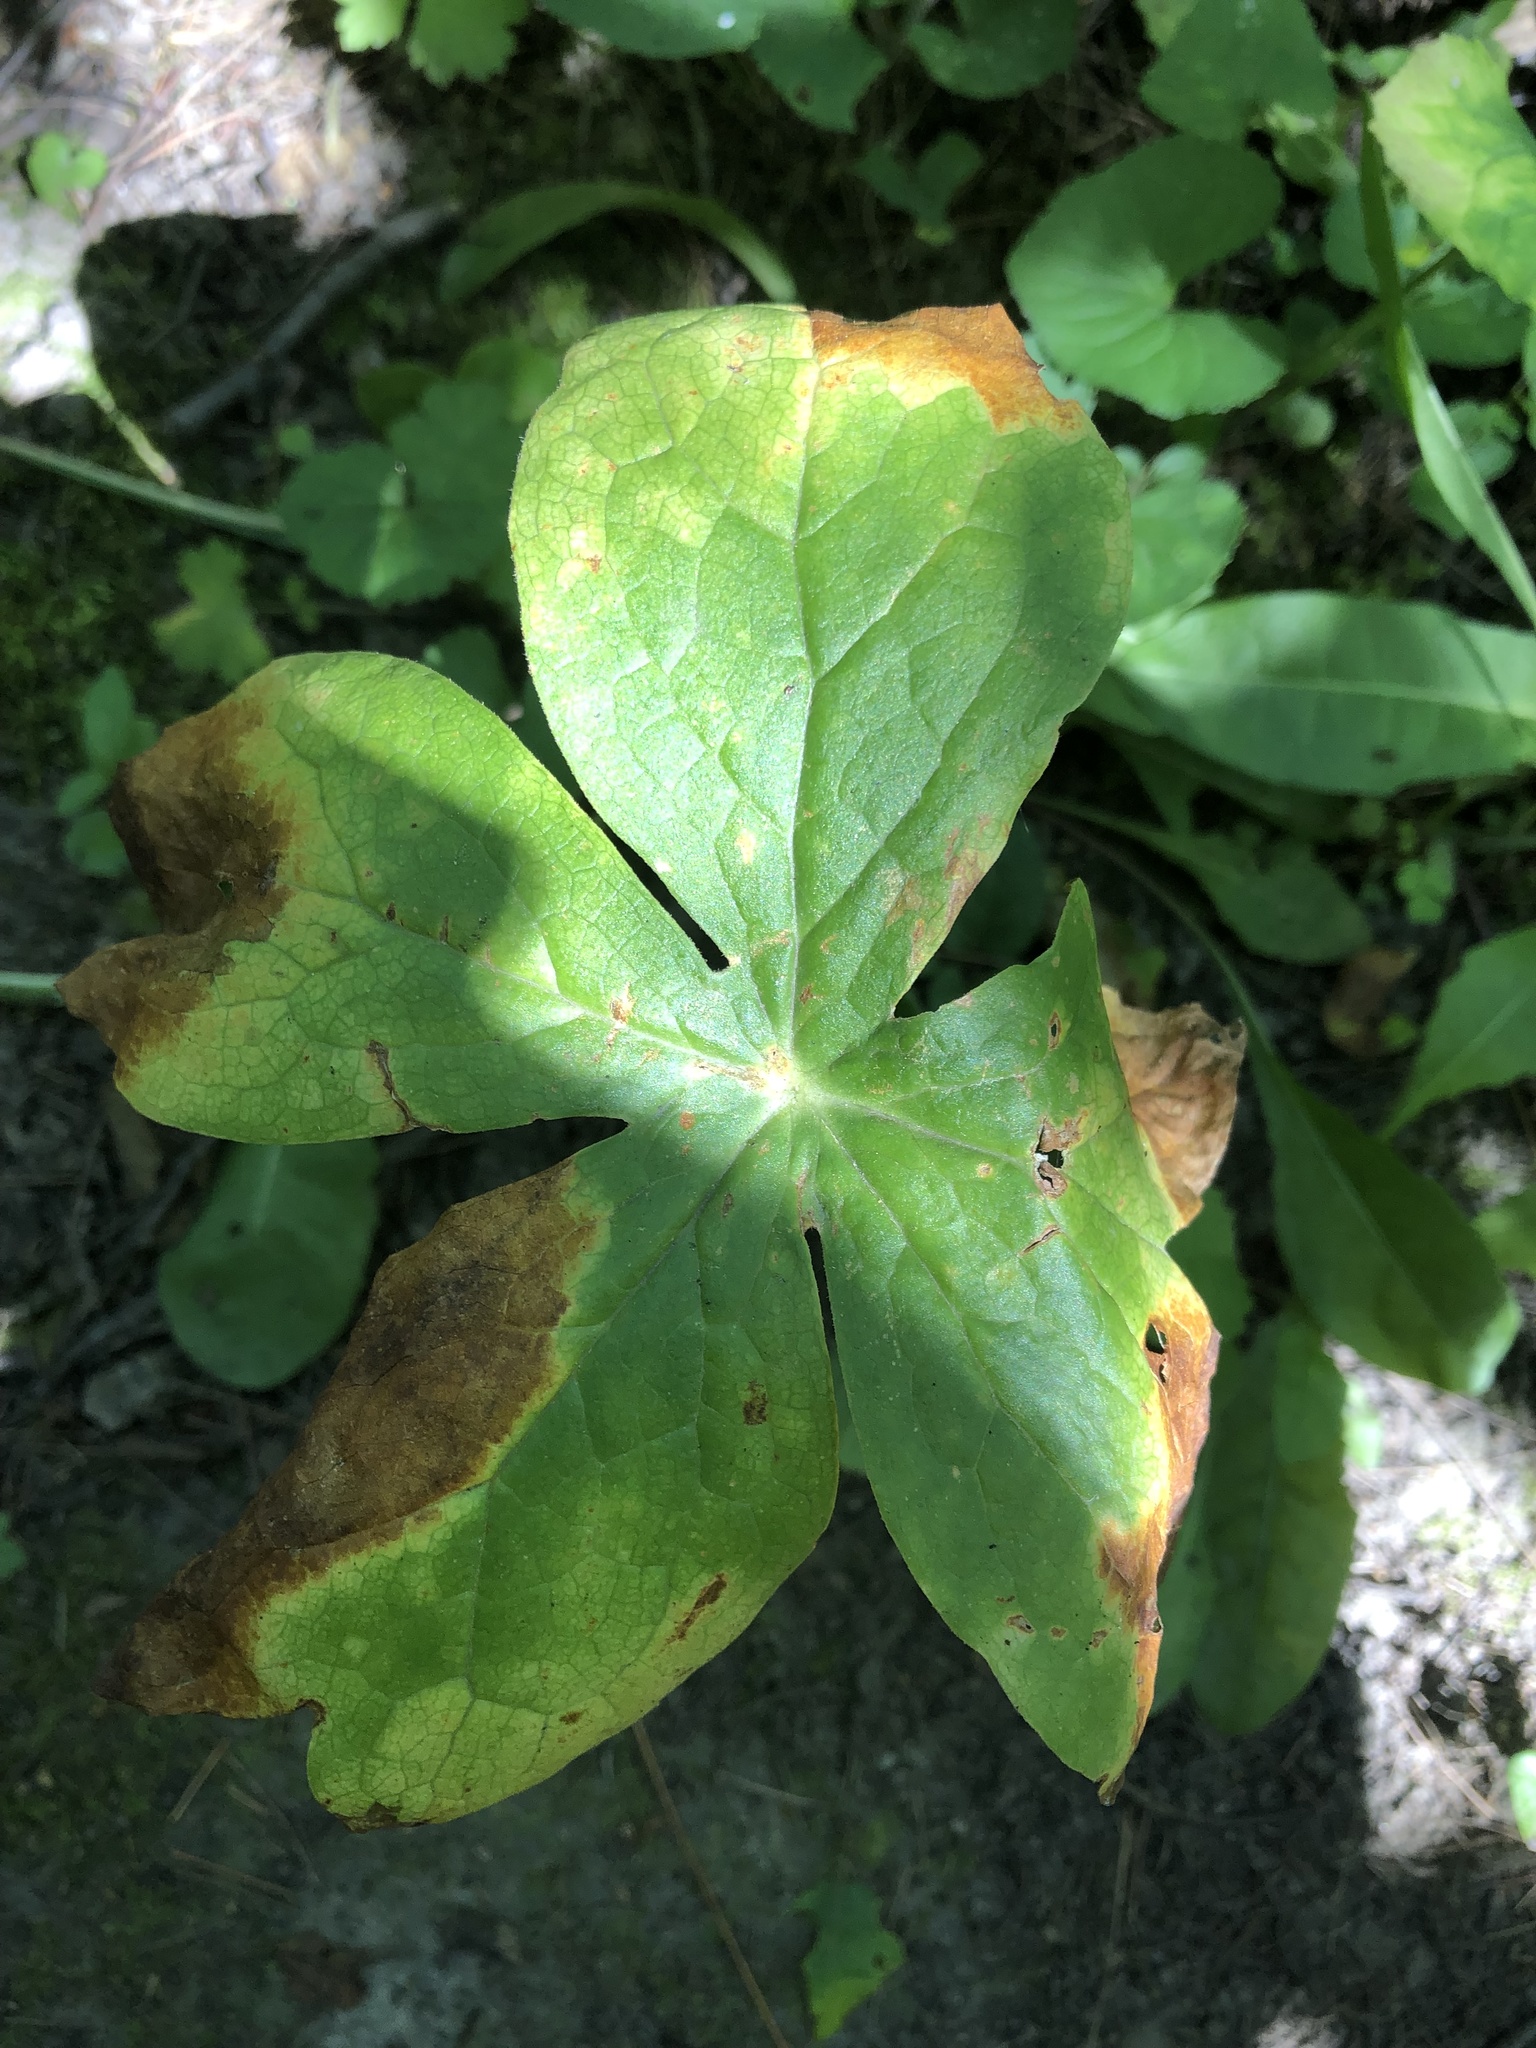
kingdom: Plantae
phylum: Tracheophyta
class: Magnoliopsida
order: Ranunculales
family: Berberidaceae
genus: Podophyllum
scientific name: Podophyllum peltatum
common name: Wild mandrake
